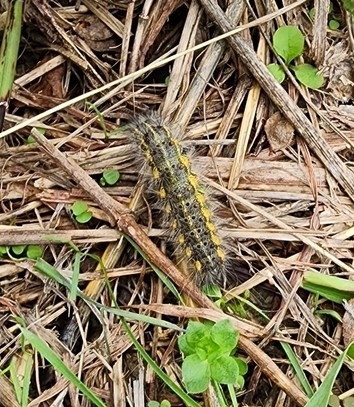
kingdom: Animalia
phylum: Arthropoda
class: Insecta
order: Lepidoptera
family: Erebidae
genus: Estigmene
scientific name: Estigmene acrea
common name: Salt marsh moth
